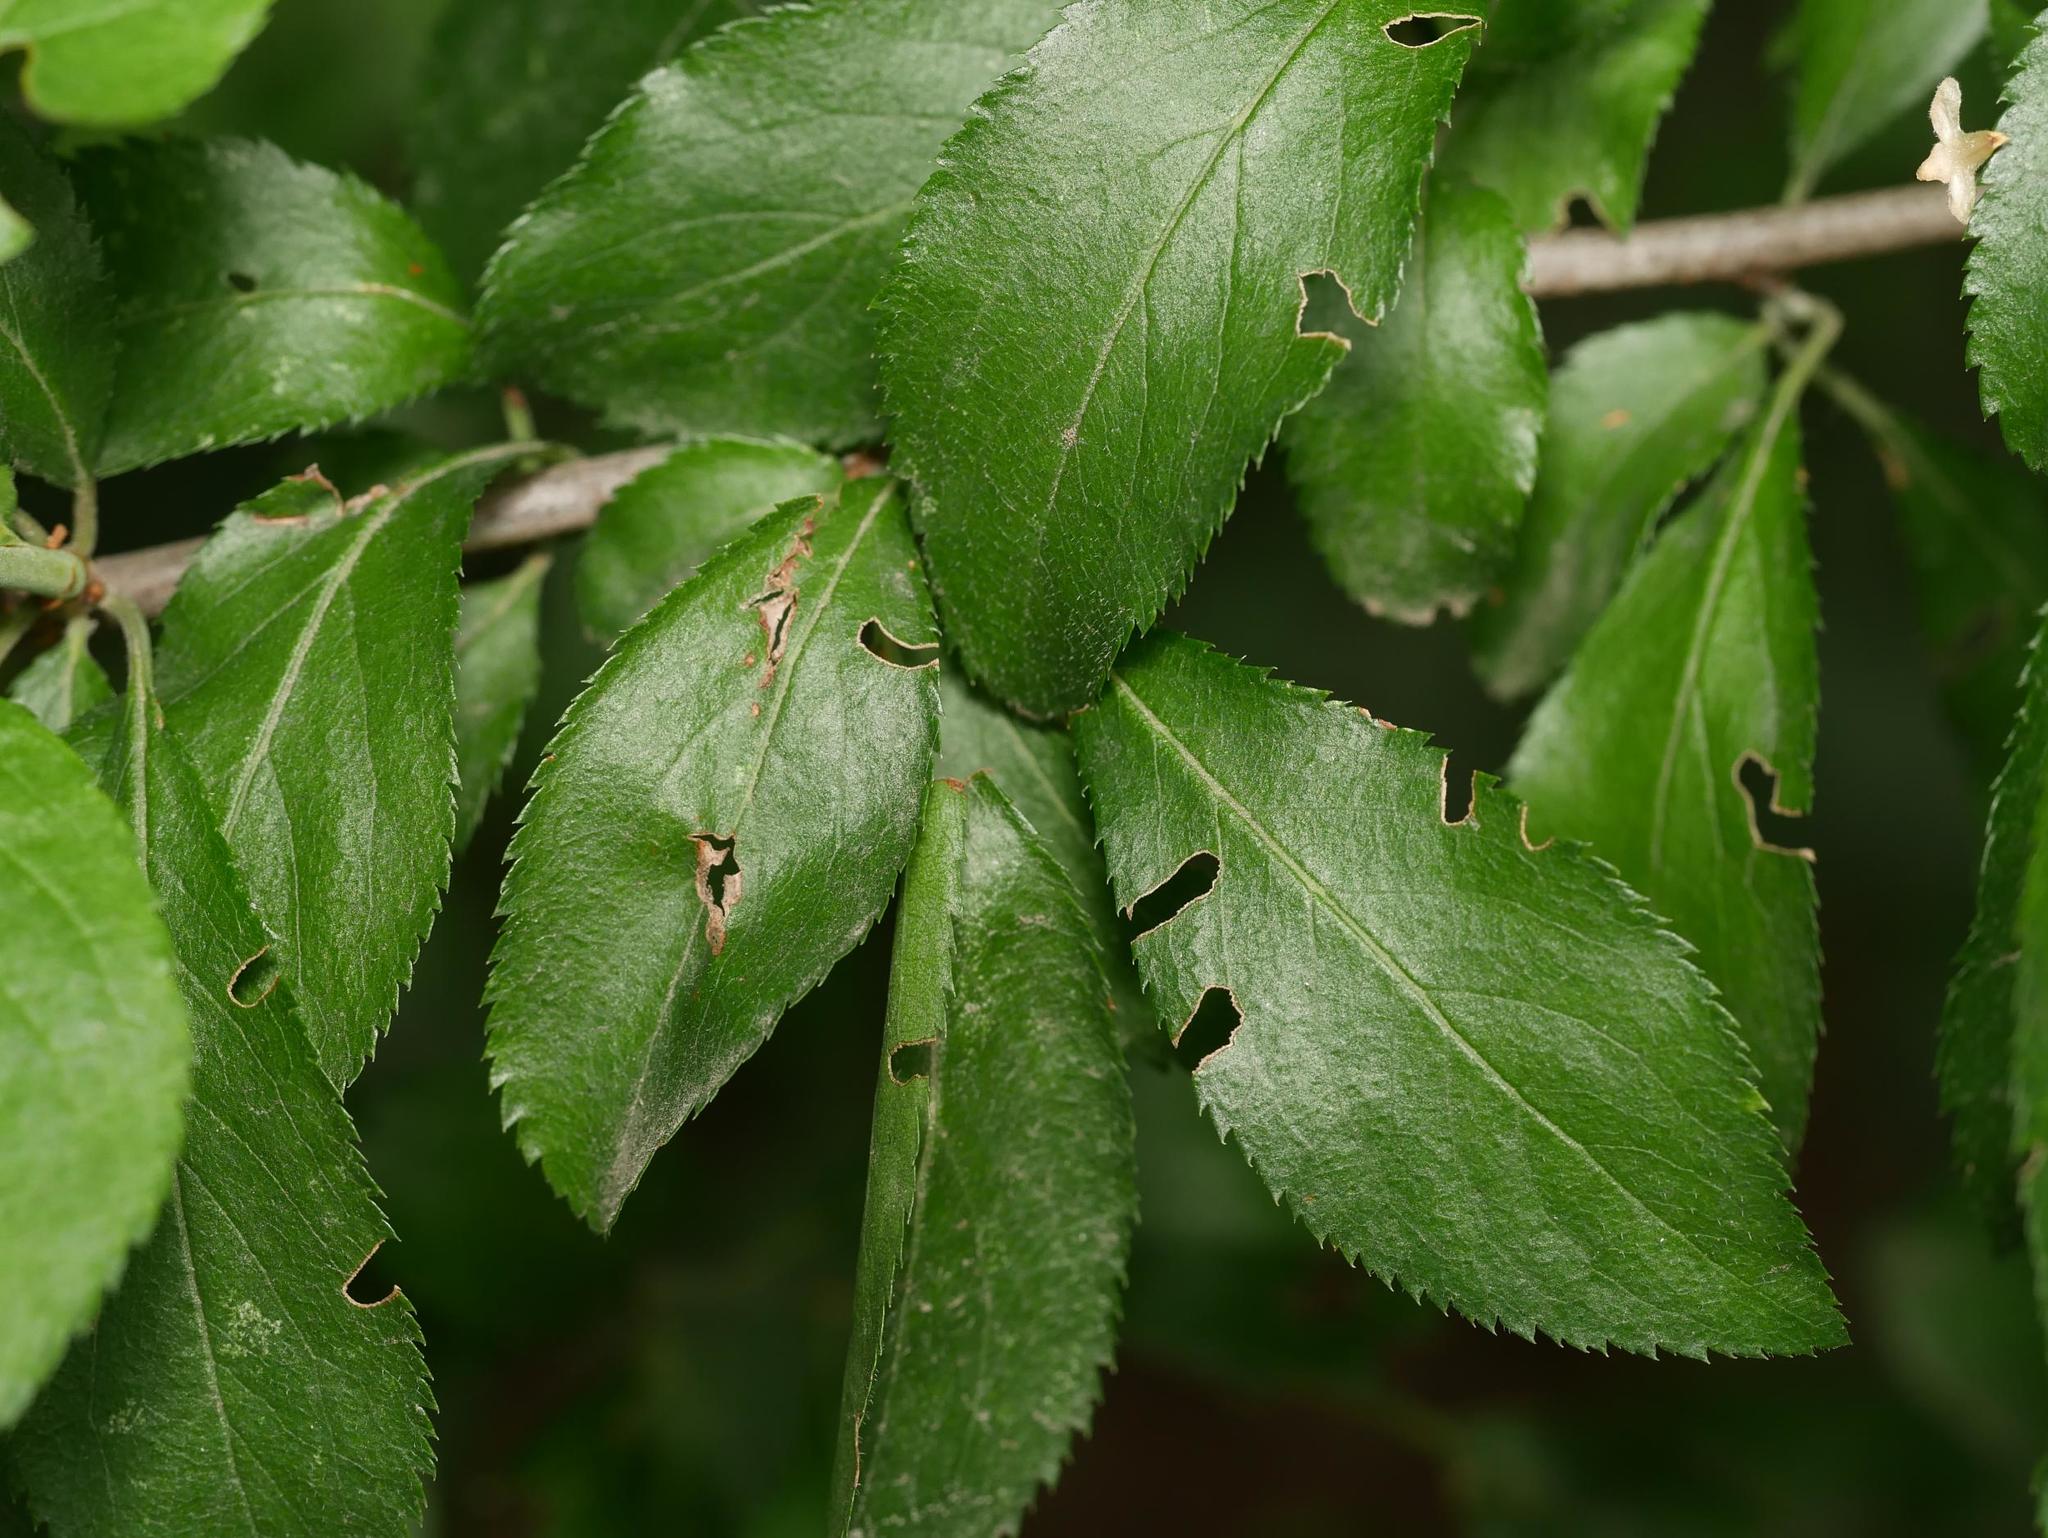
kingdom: Plantae
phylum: Tracheophyta
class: Magnoliopsida
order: Rosales
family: Rosaceae
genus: Prunus
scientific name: Prunus spinosa
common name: Blackthorn
